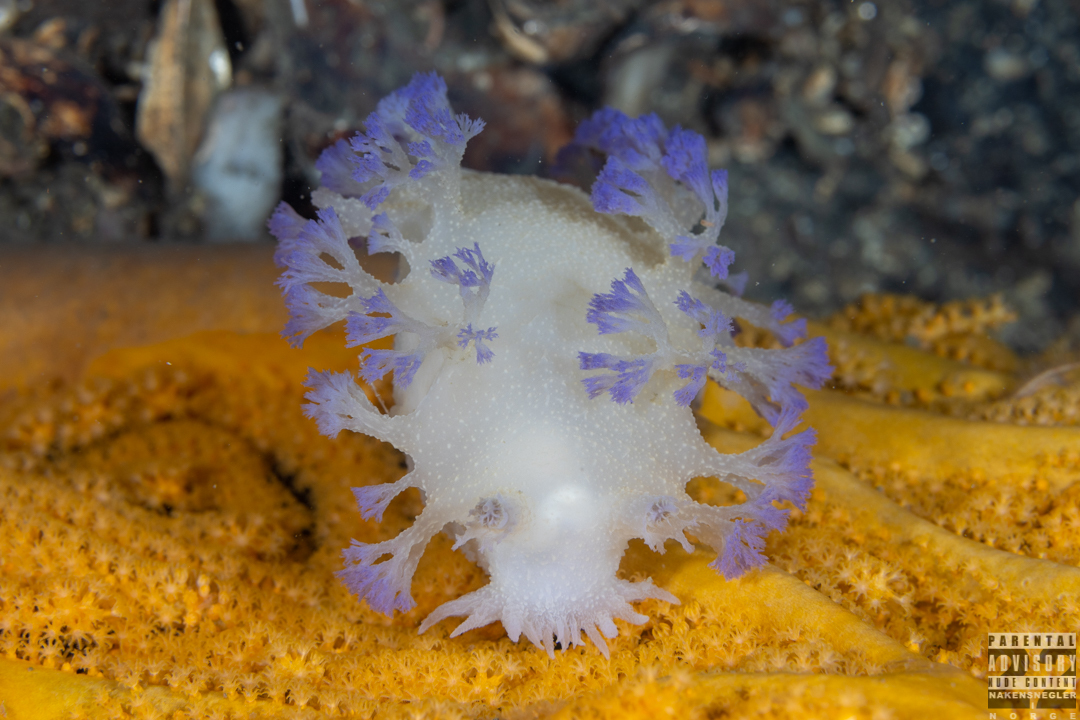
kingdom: Animalia
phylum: Mollusca
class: Gastropoda
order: Nudibranchia
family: Tritoniidae
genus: Tritonia
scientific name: Tritonia griegi
